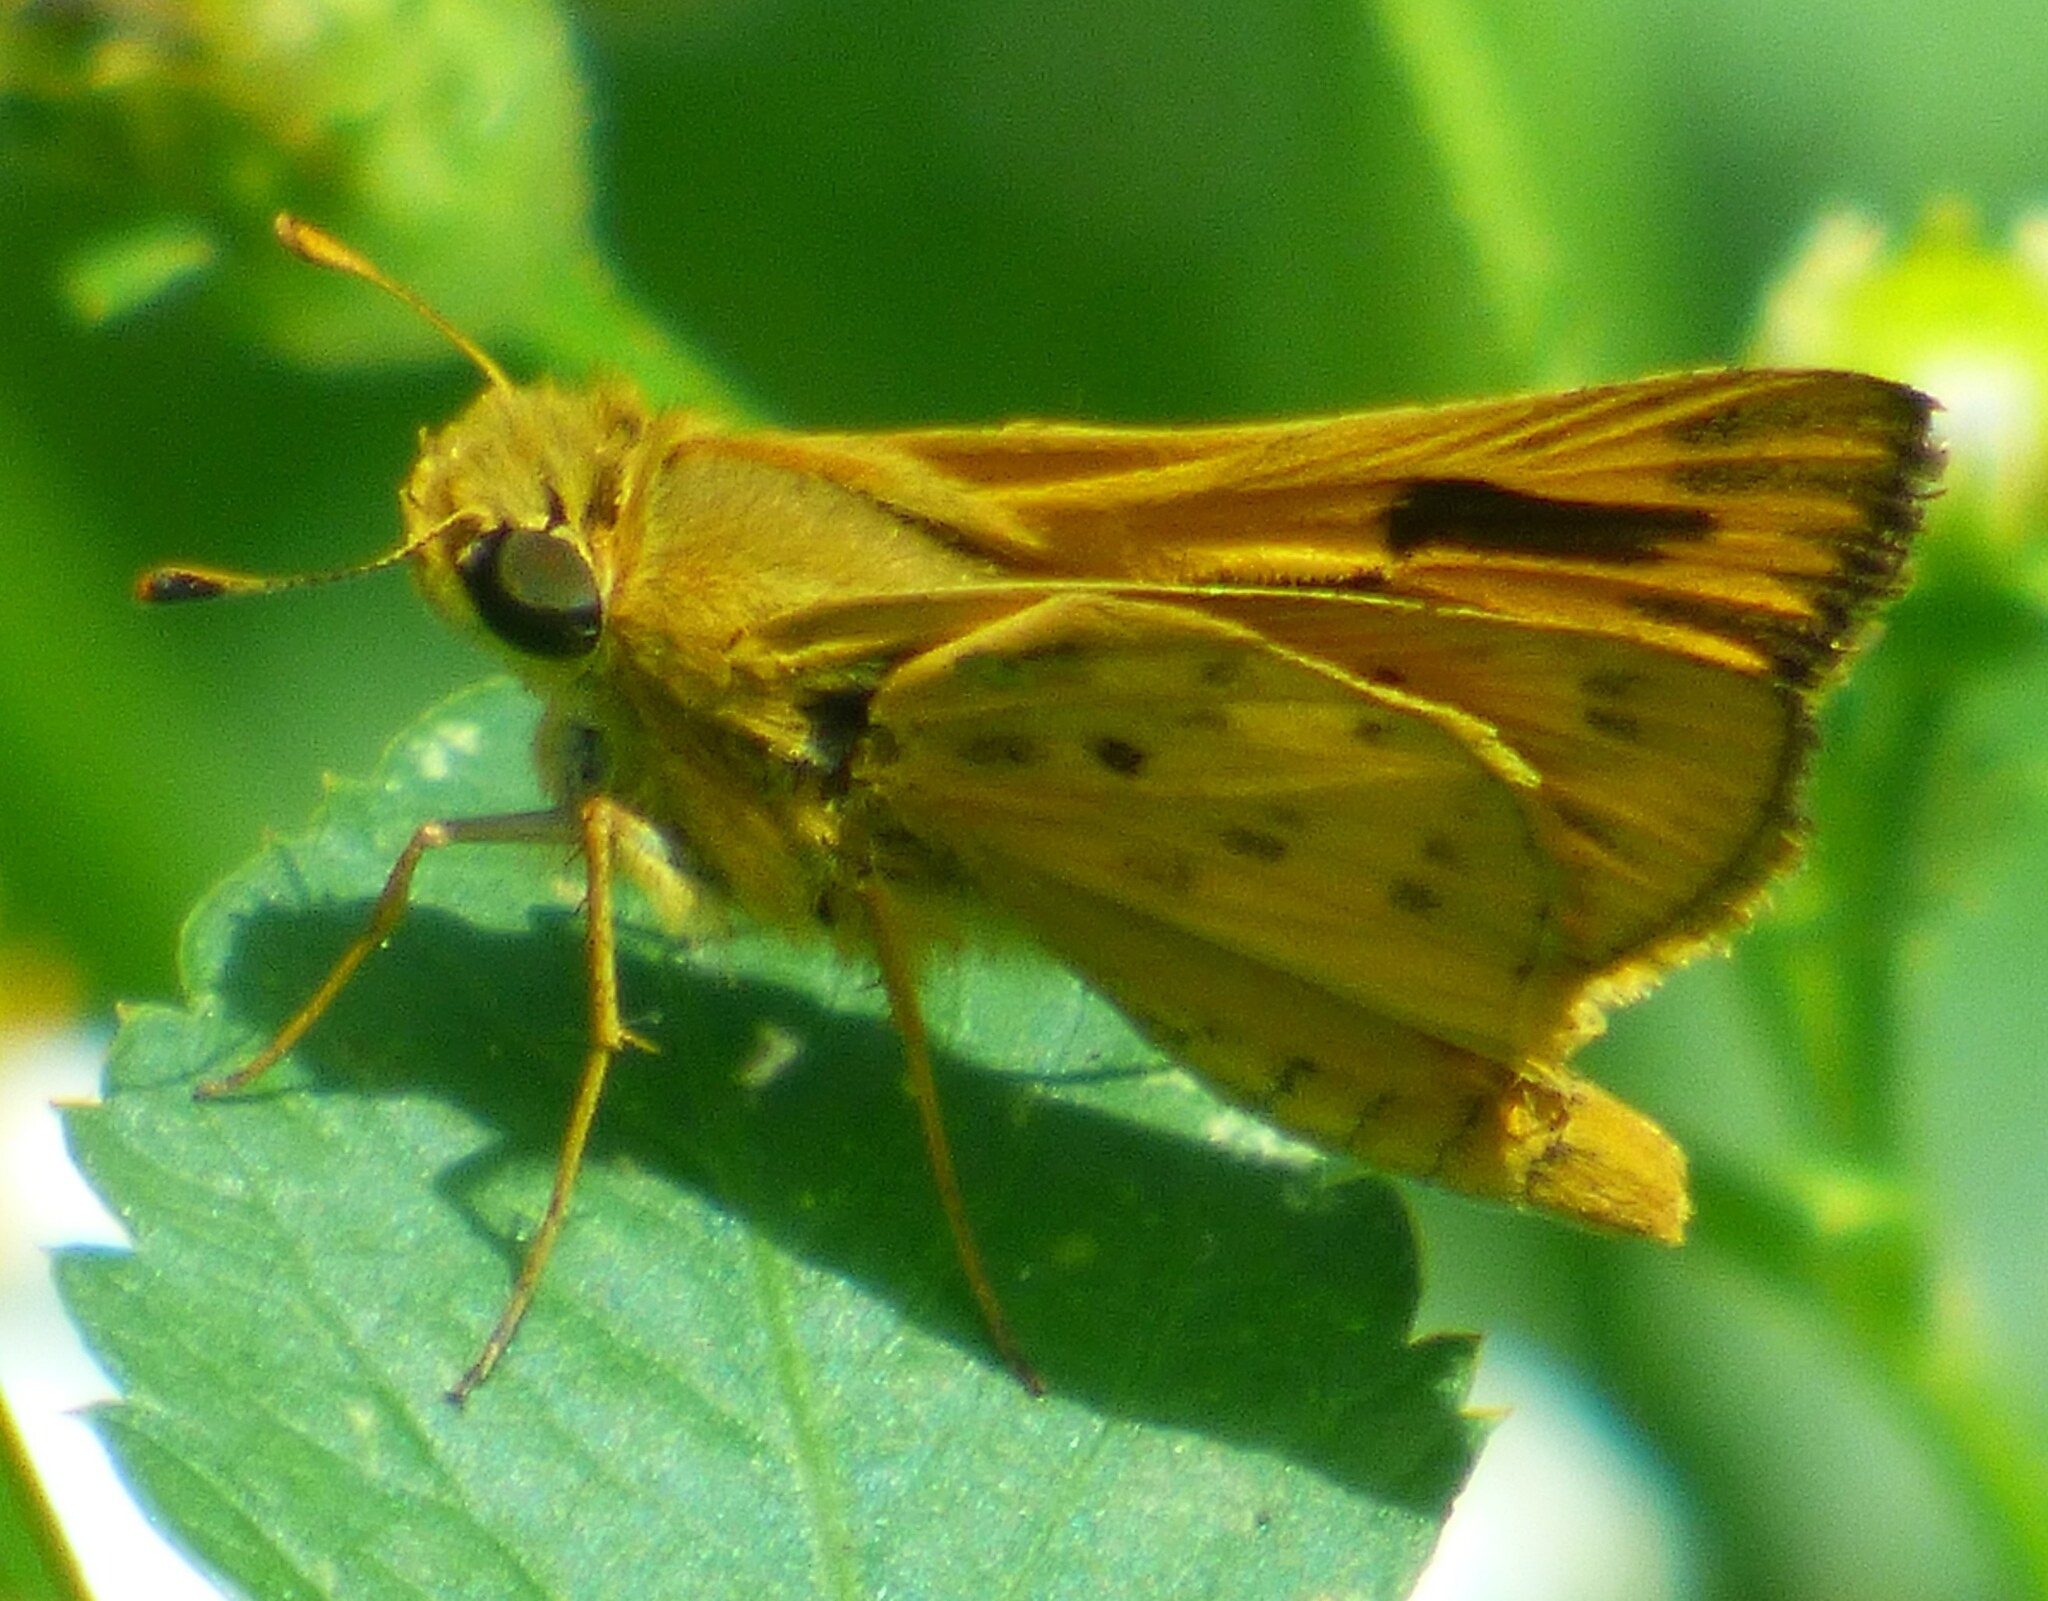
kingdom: Animalia
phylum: Arthropoda
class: Insecta
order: Lepidoptera
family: Hesperiidae
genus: Hylephila
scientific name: Hylephila phyleus
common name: Fiery skipper
